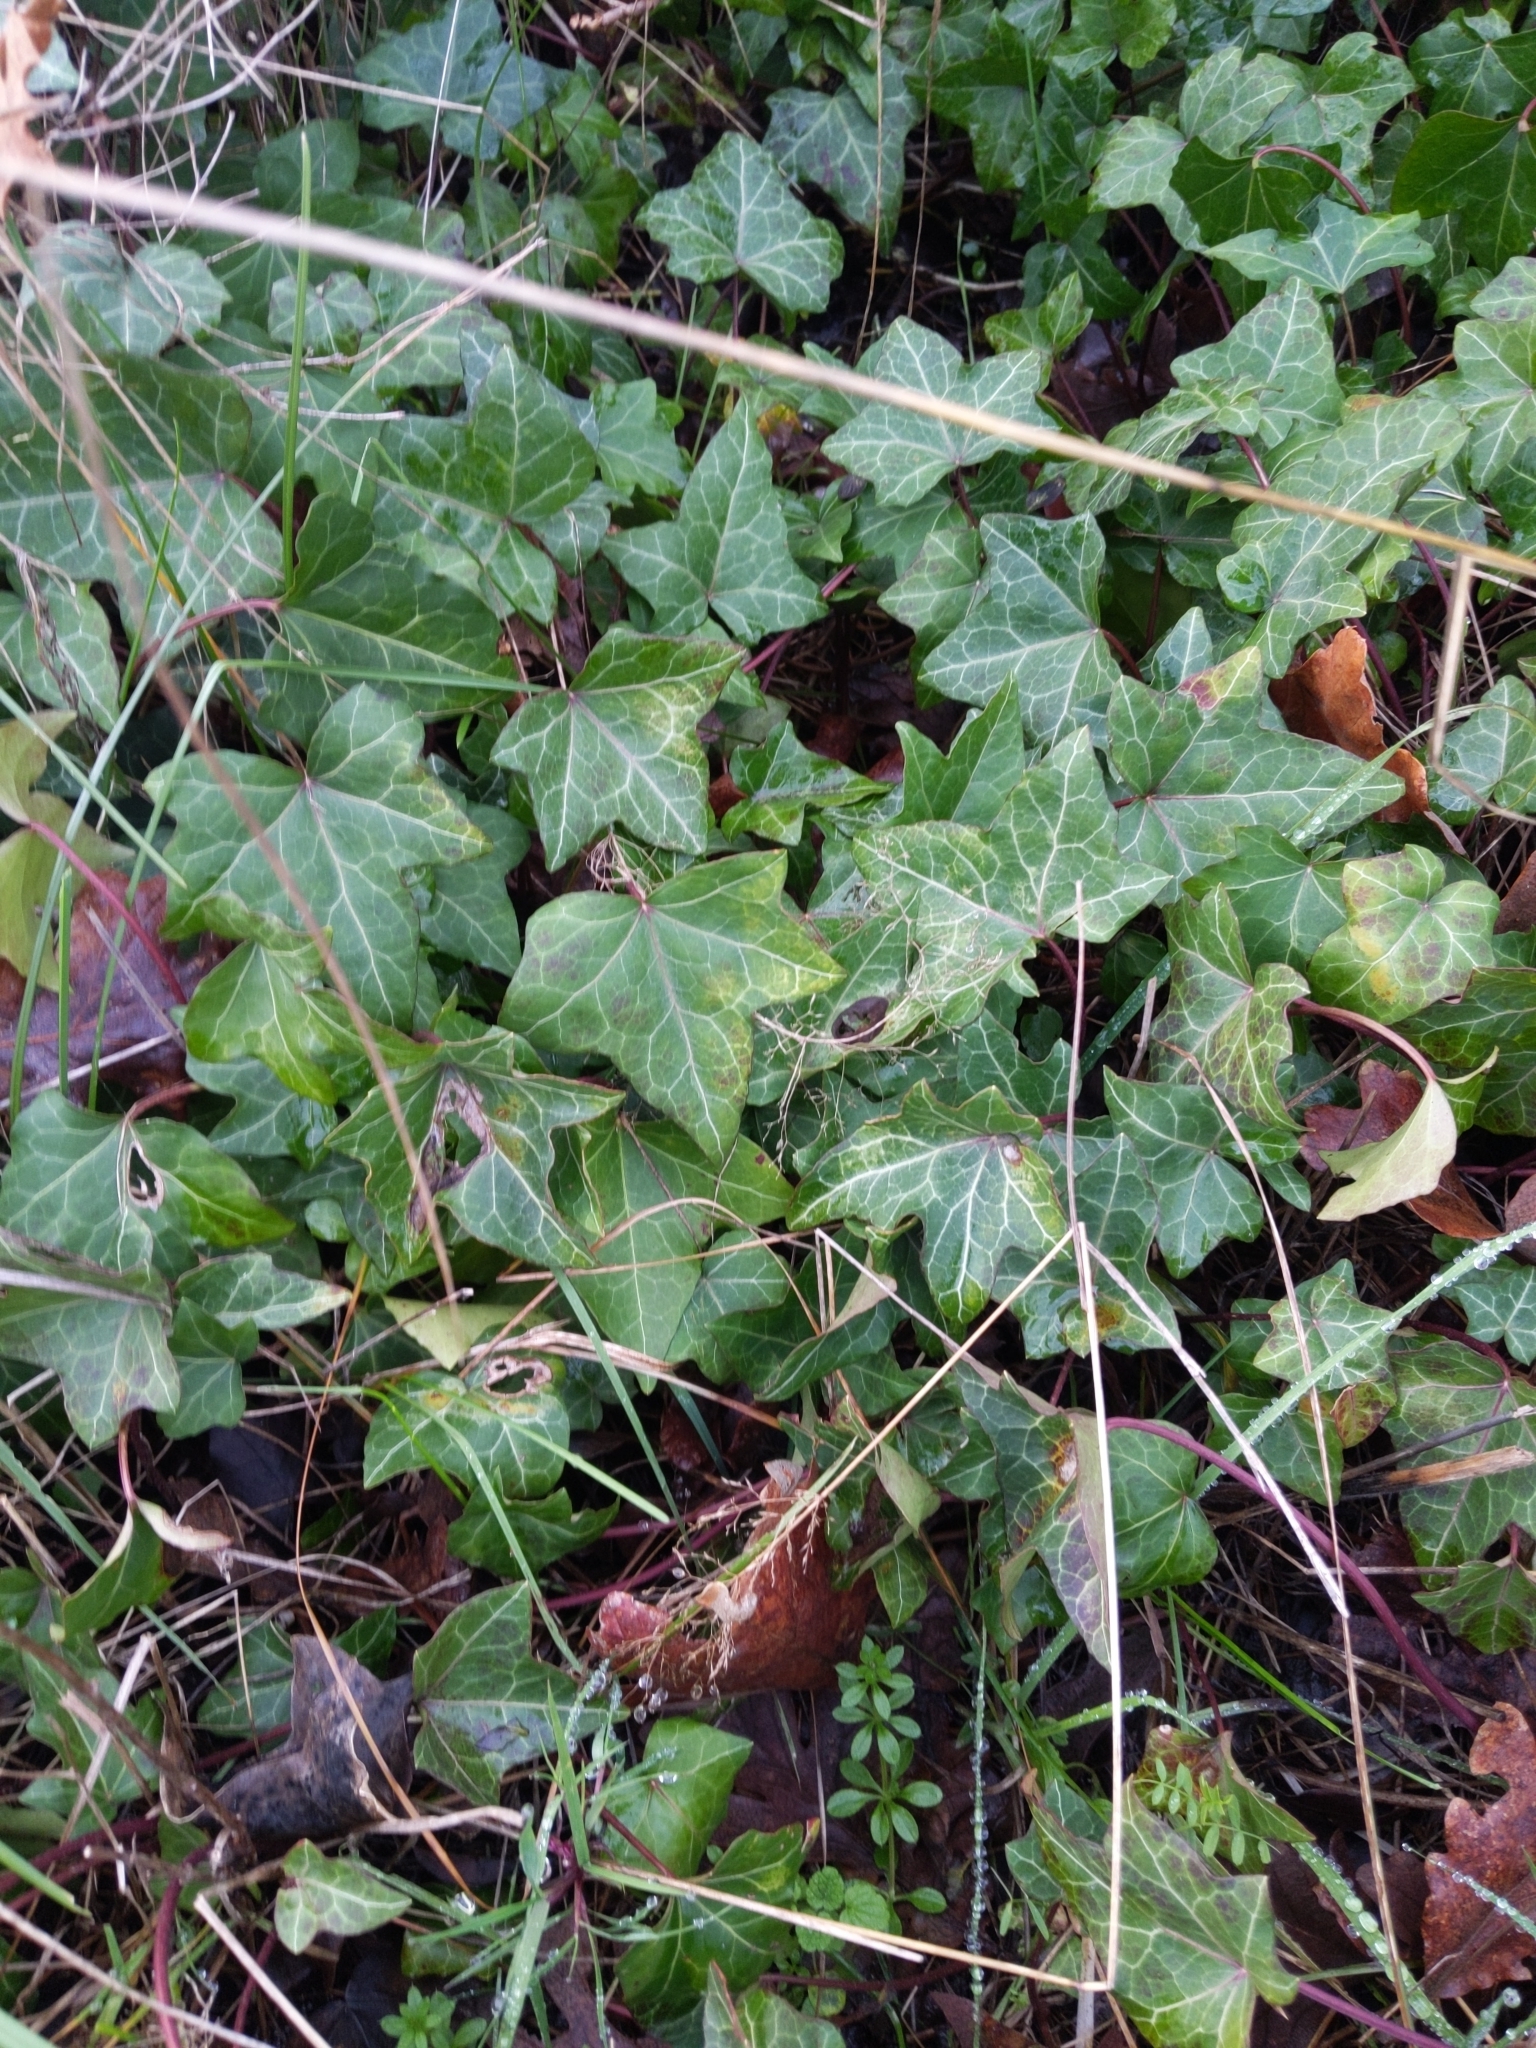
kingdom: Plantae
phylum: Tracheophyta
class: Magnoliopsida
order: Apiales
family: Araliaceae
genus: Hedera
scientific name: Hedera helix
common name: Ivy
